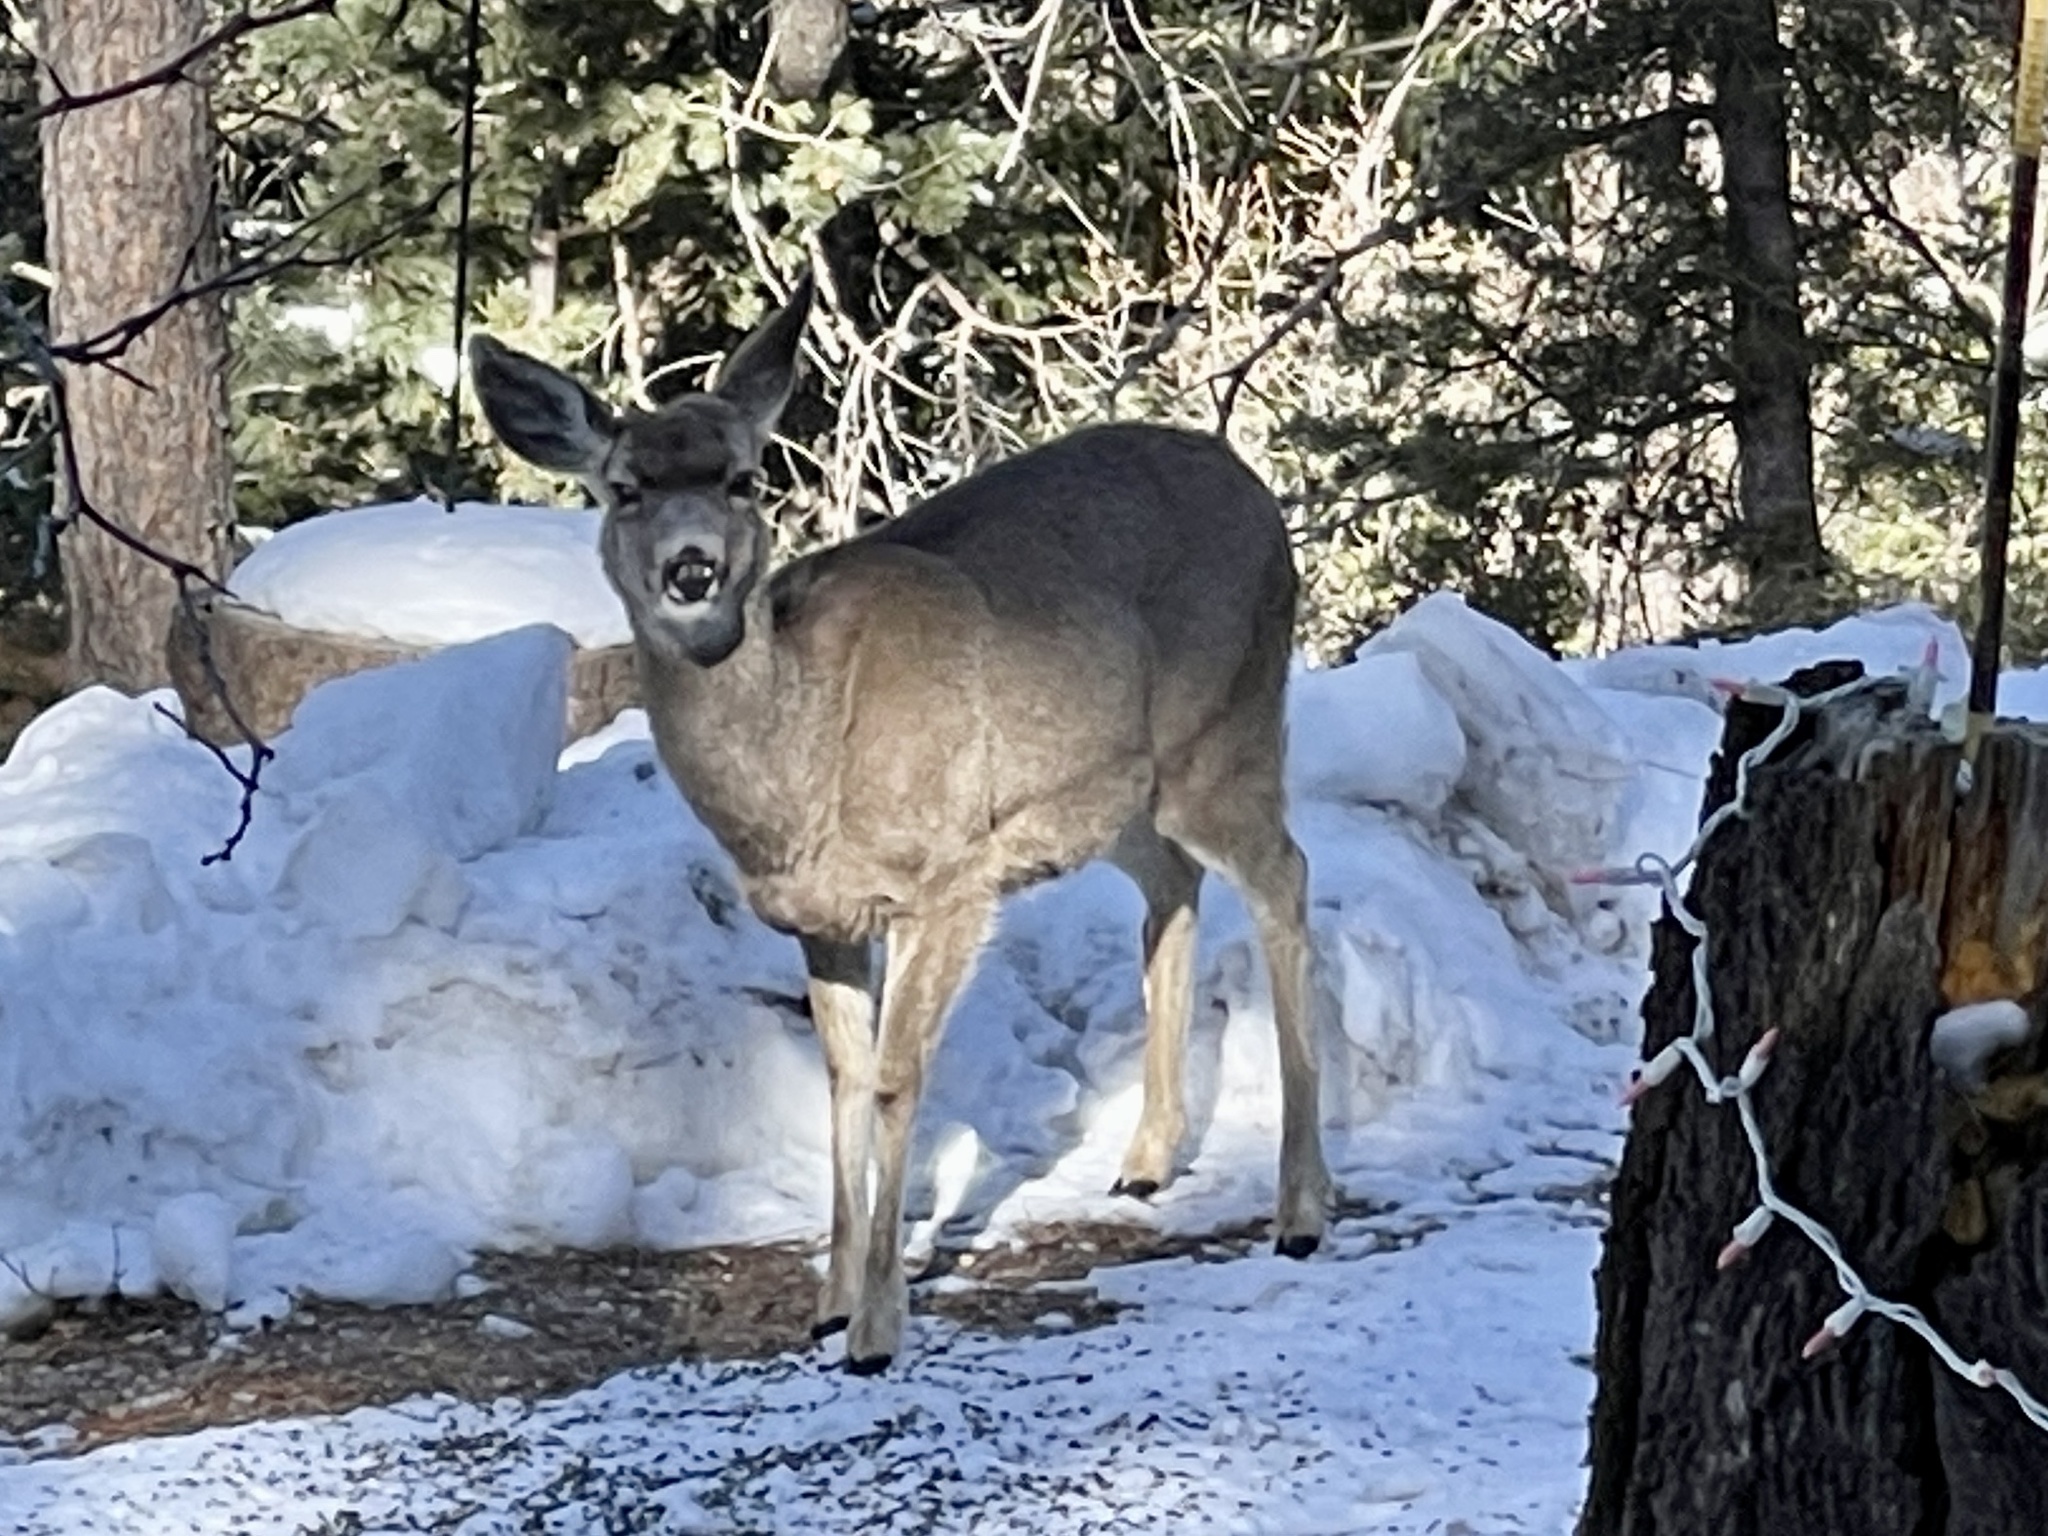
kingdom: Animalia
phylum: Chordata
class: Mammalia
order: Artiodactyla
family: Cervidae
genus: Odocoileus
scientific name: Odocoileus hemionus
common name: Mule deer
